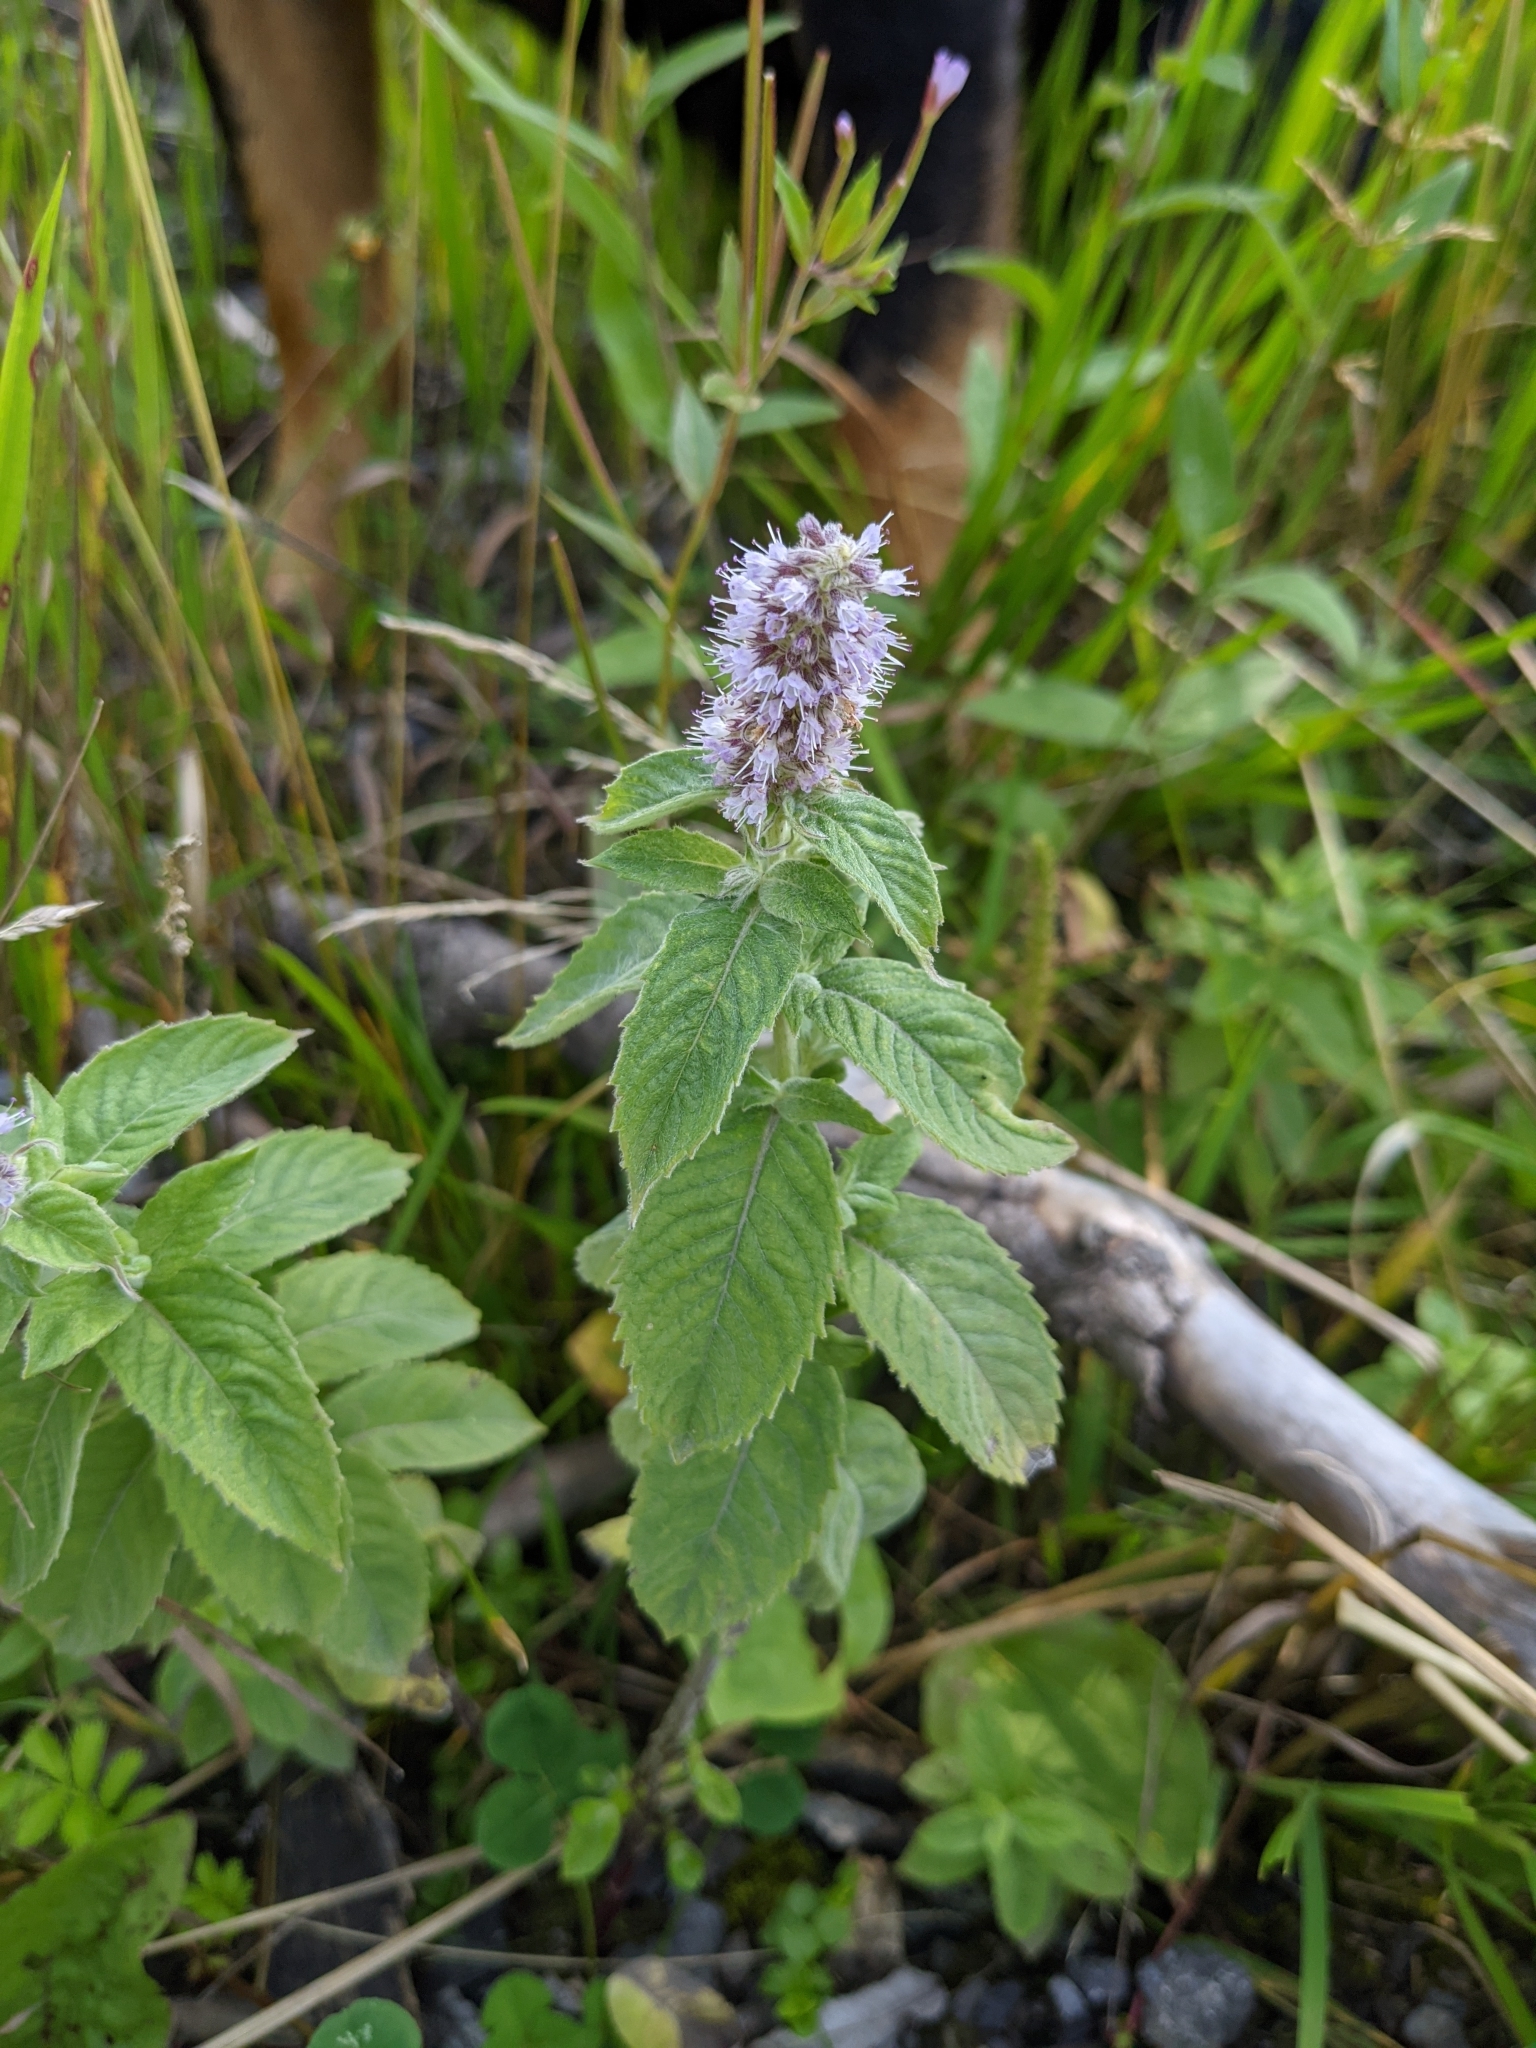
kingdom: Plantae
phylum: Tracheophyta
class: Magnoliopsida
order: Lamiales
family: Lamiaceae
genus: Mentha
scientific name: Mentha longifolia
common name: Horse mint
